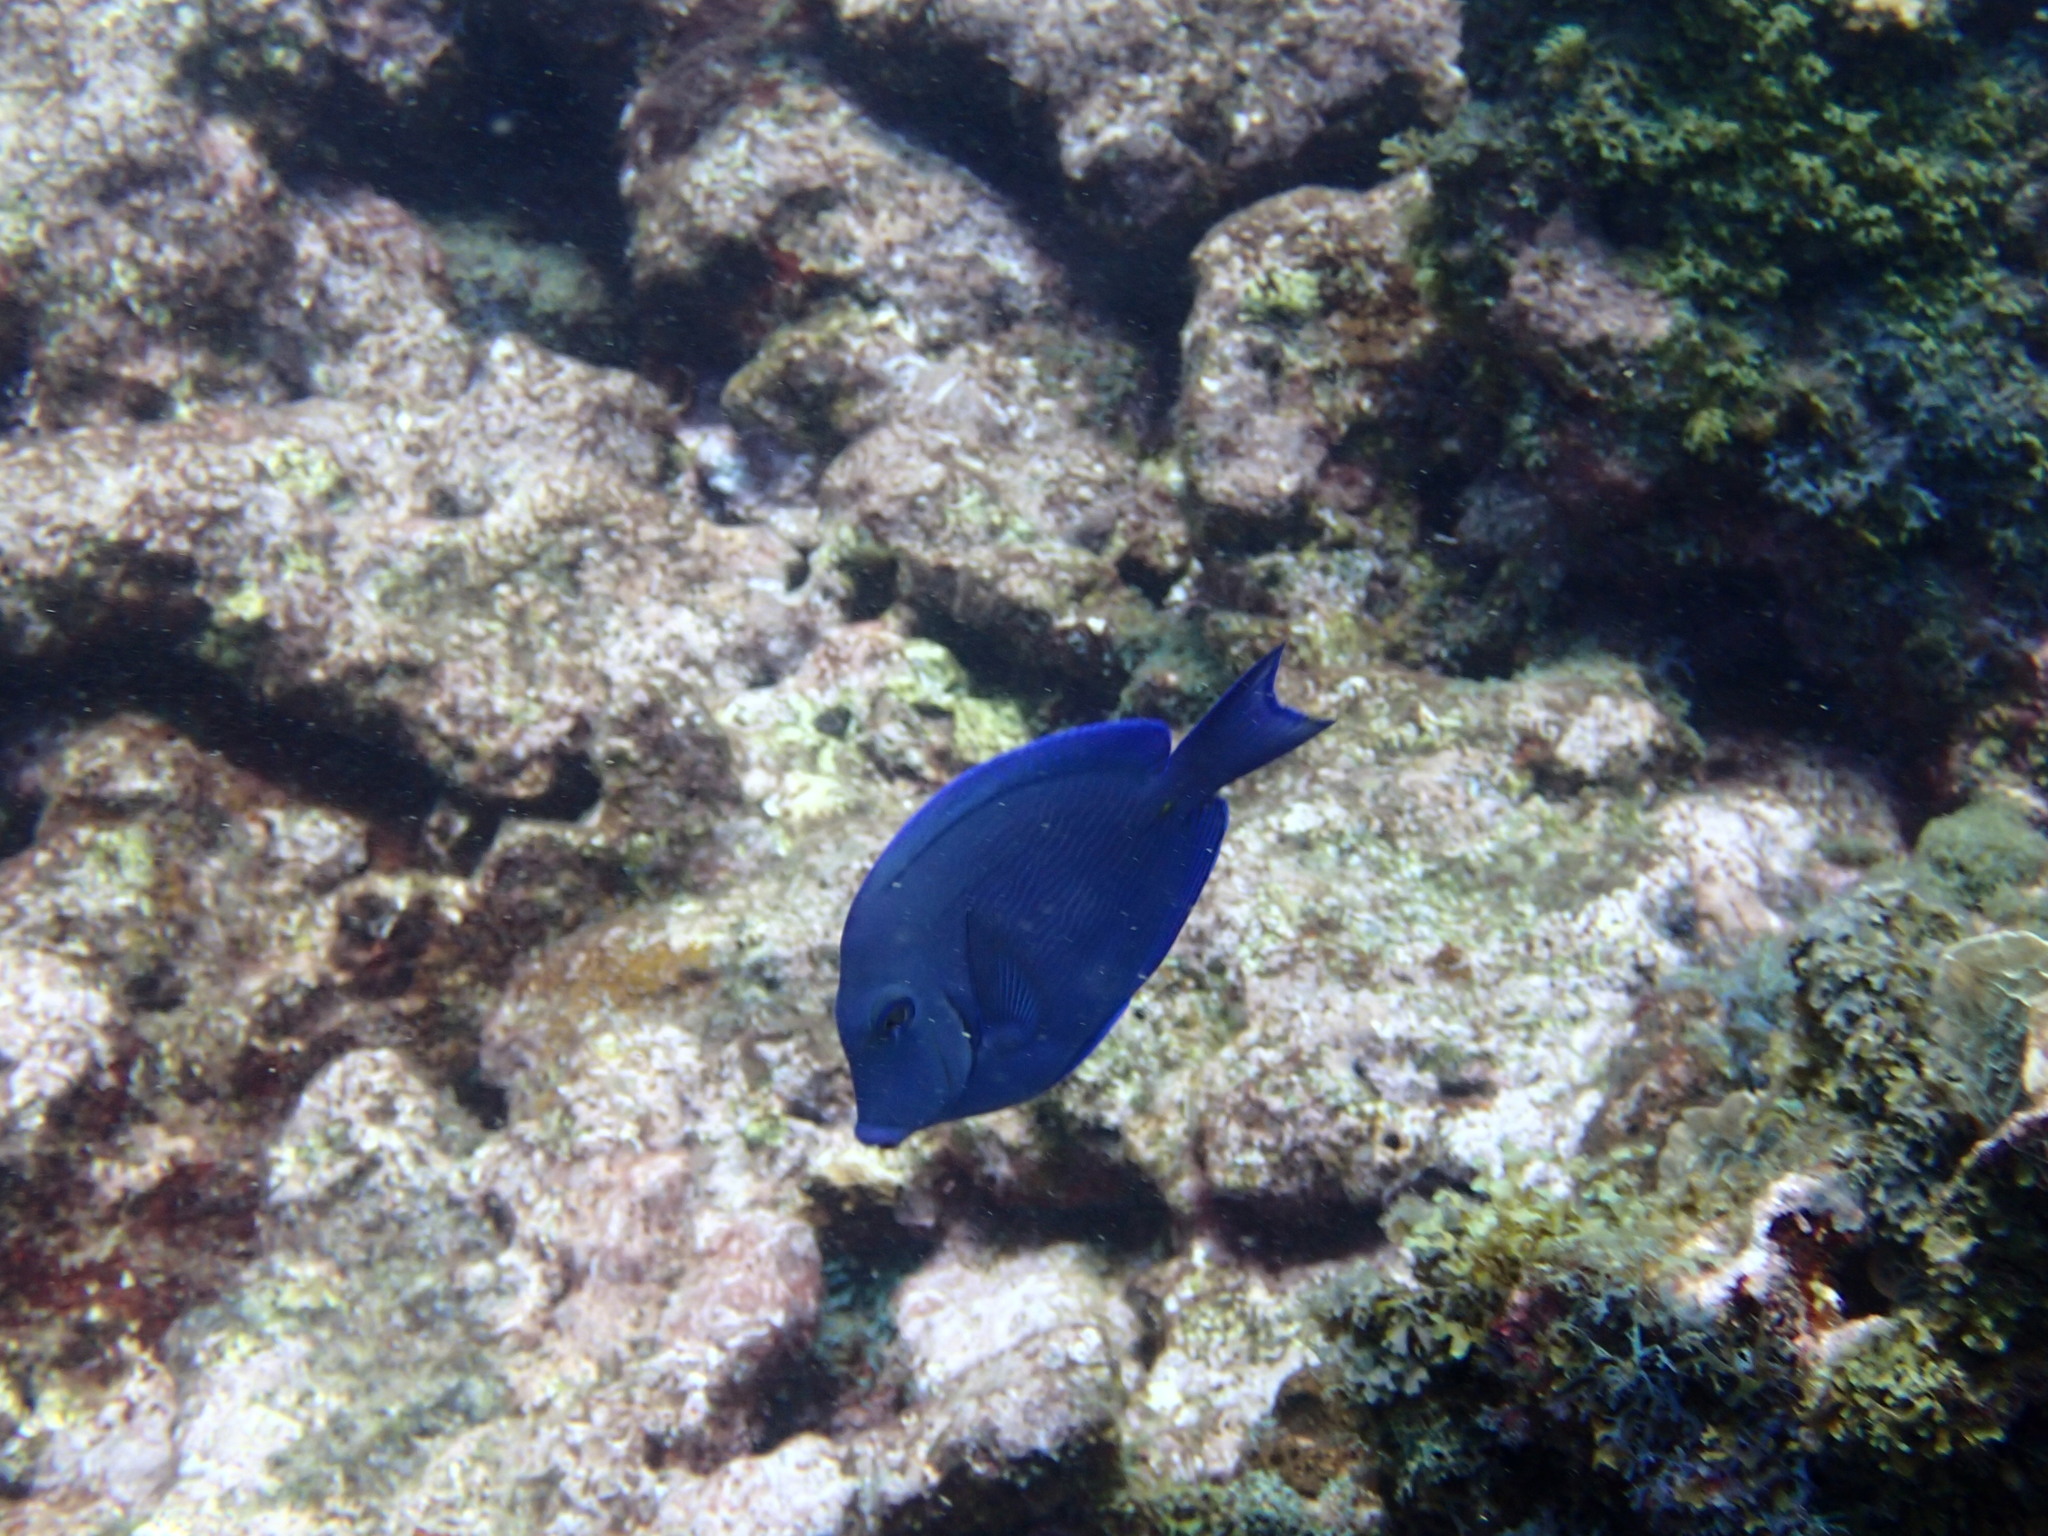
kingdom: Animalia
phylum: Chordata
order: Perciformes
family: Acanthuridae
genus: Acanthurus
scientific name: Acanthurus coeruleus
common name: Blue tang
